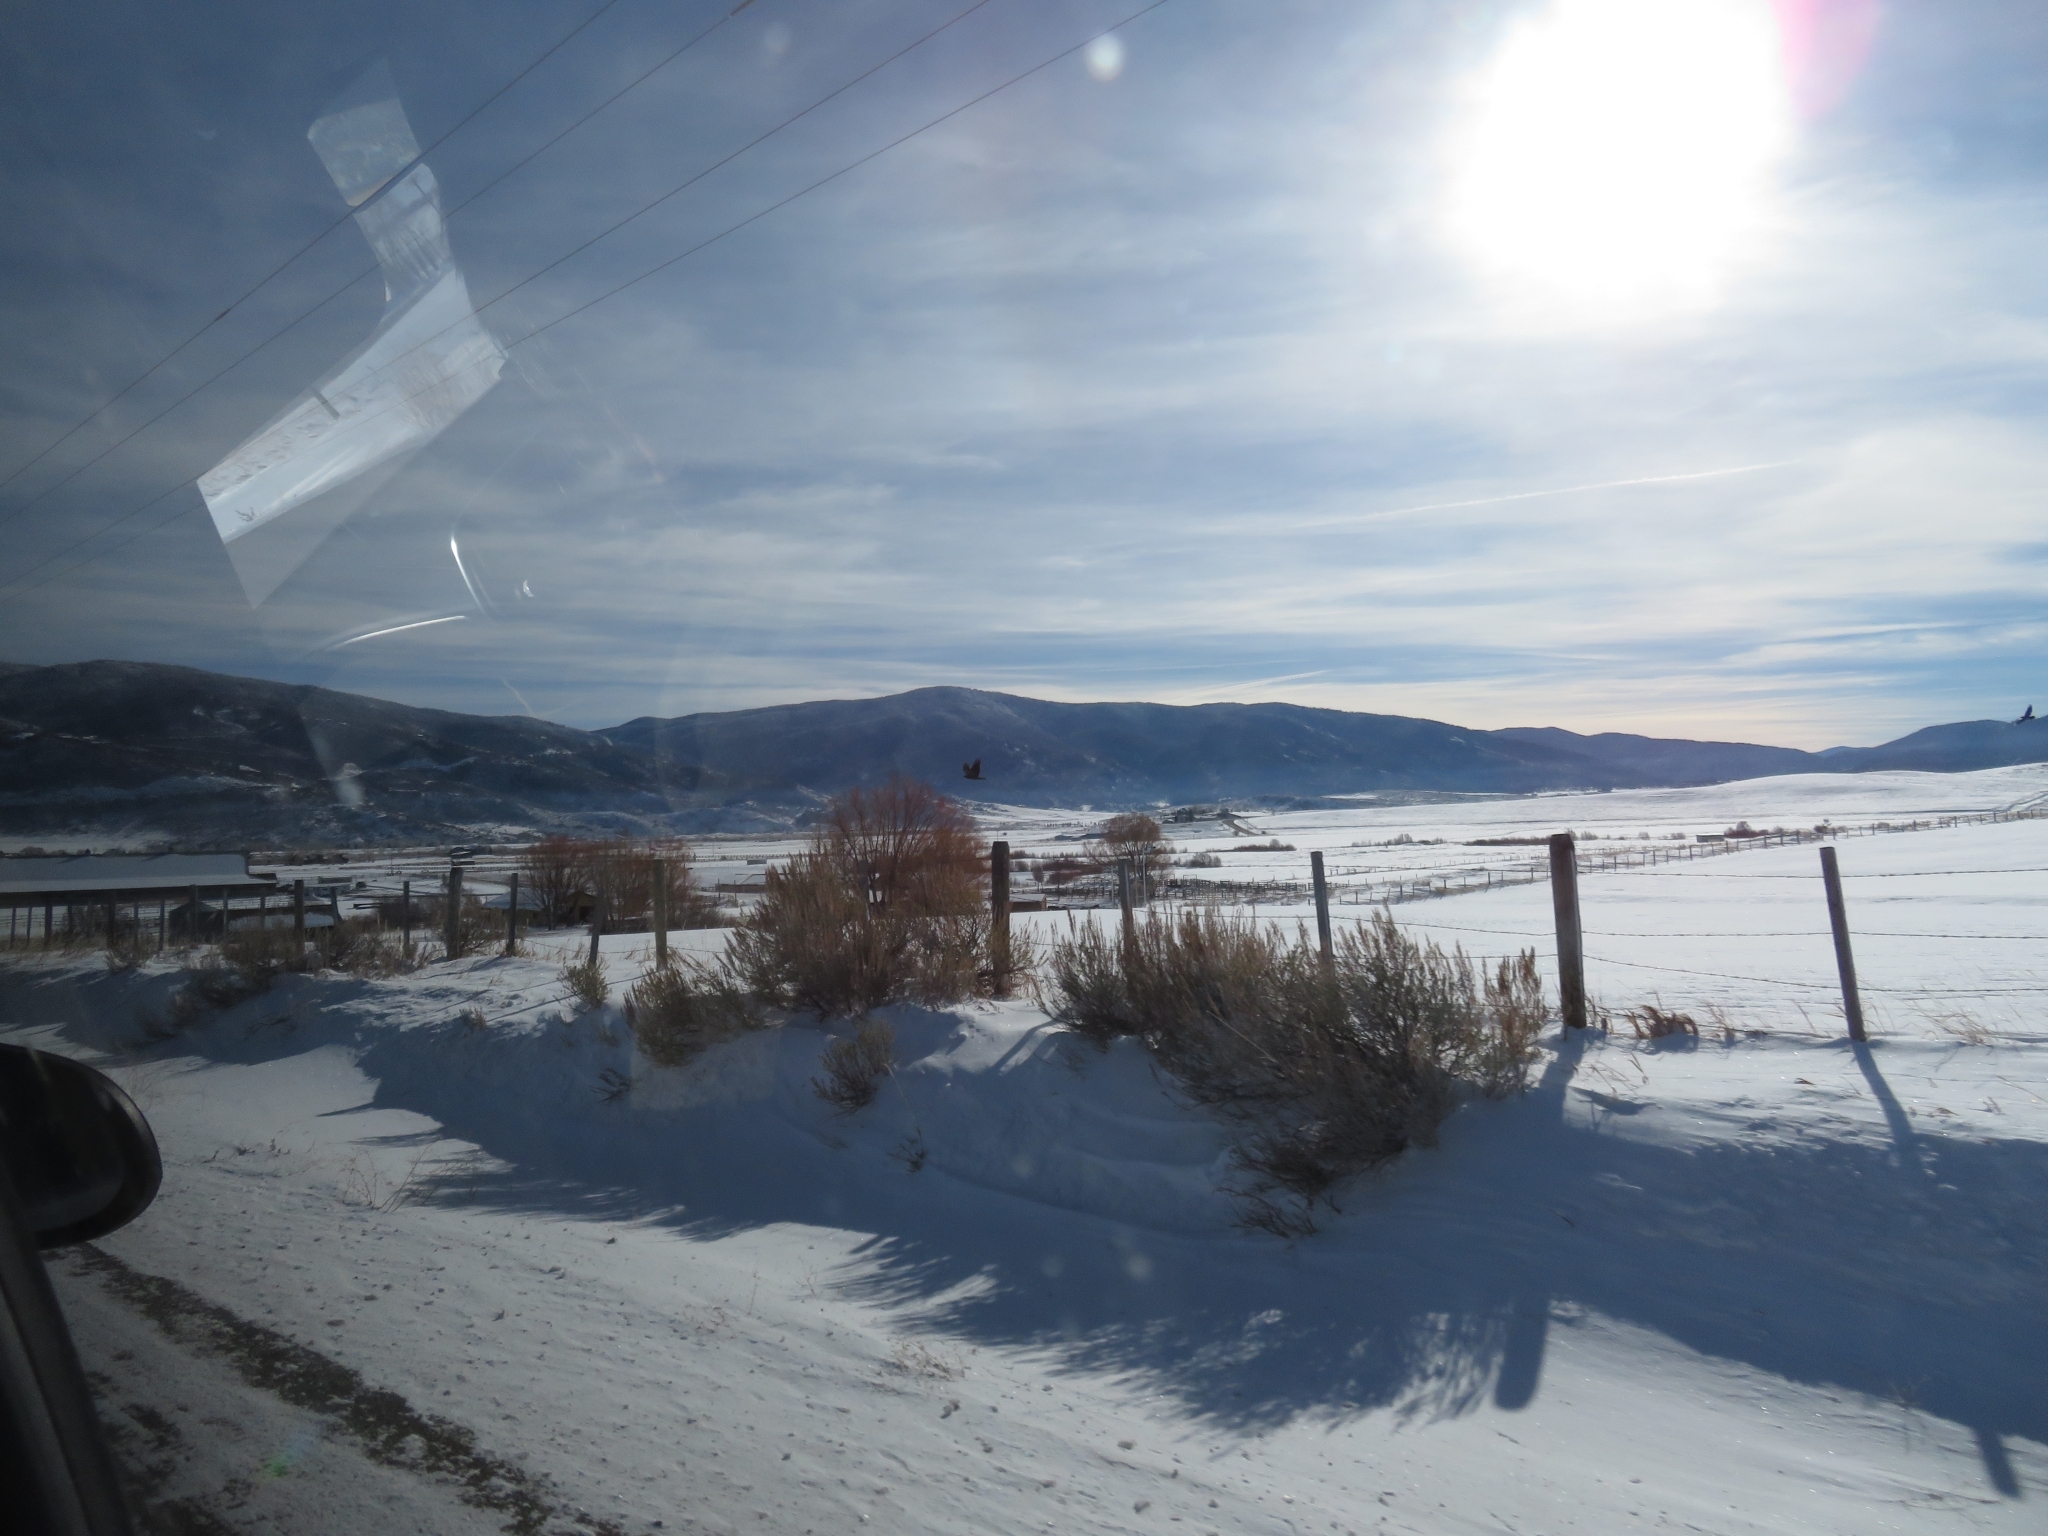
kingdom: Animalia
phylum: Chordata
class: Aves
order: Passeriformes
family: Corvidae
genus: Corvus
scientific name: Corvus corax
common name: Common raven
